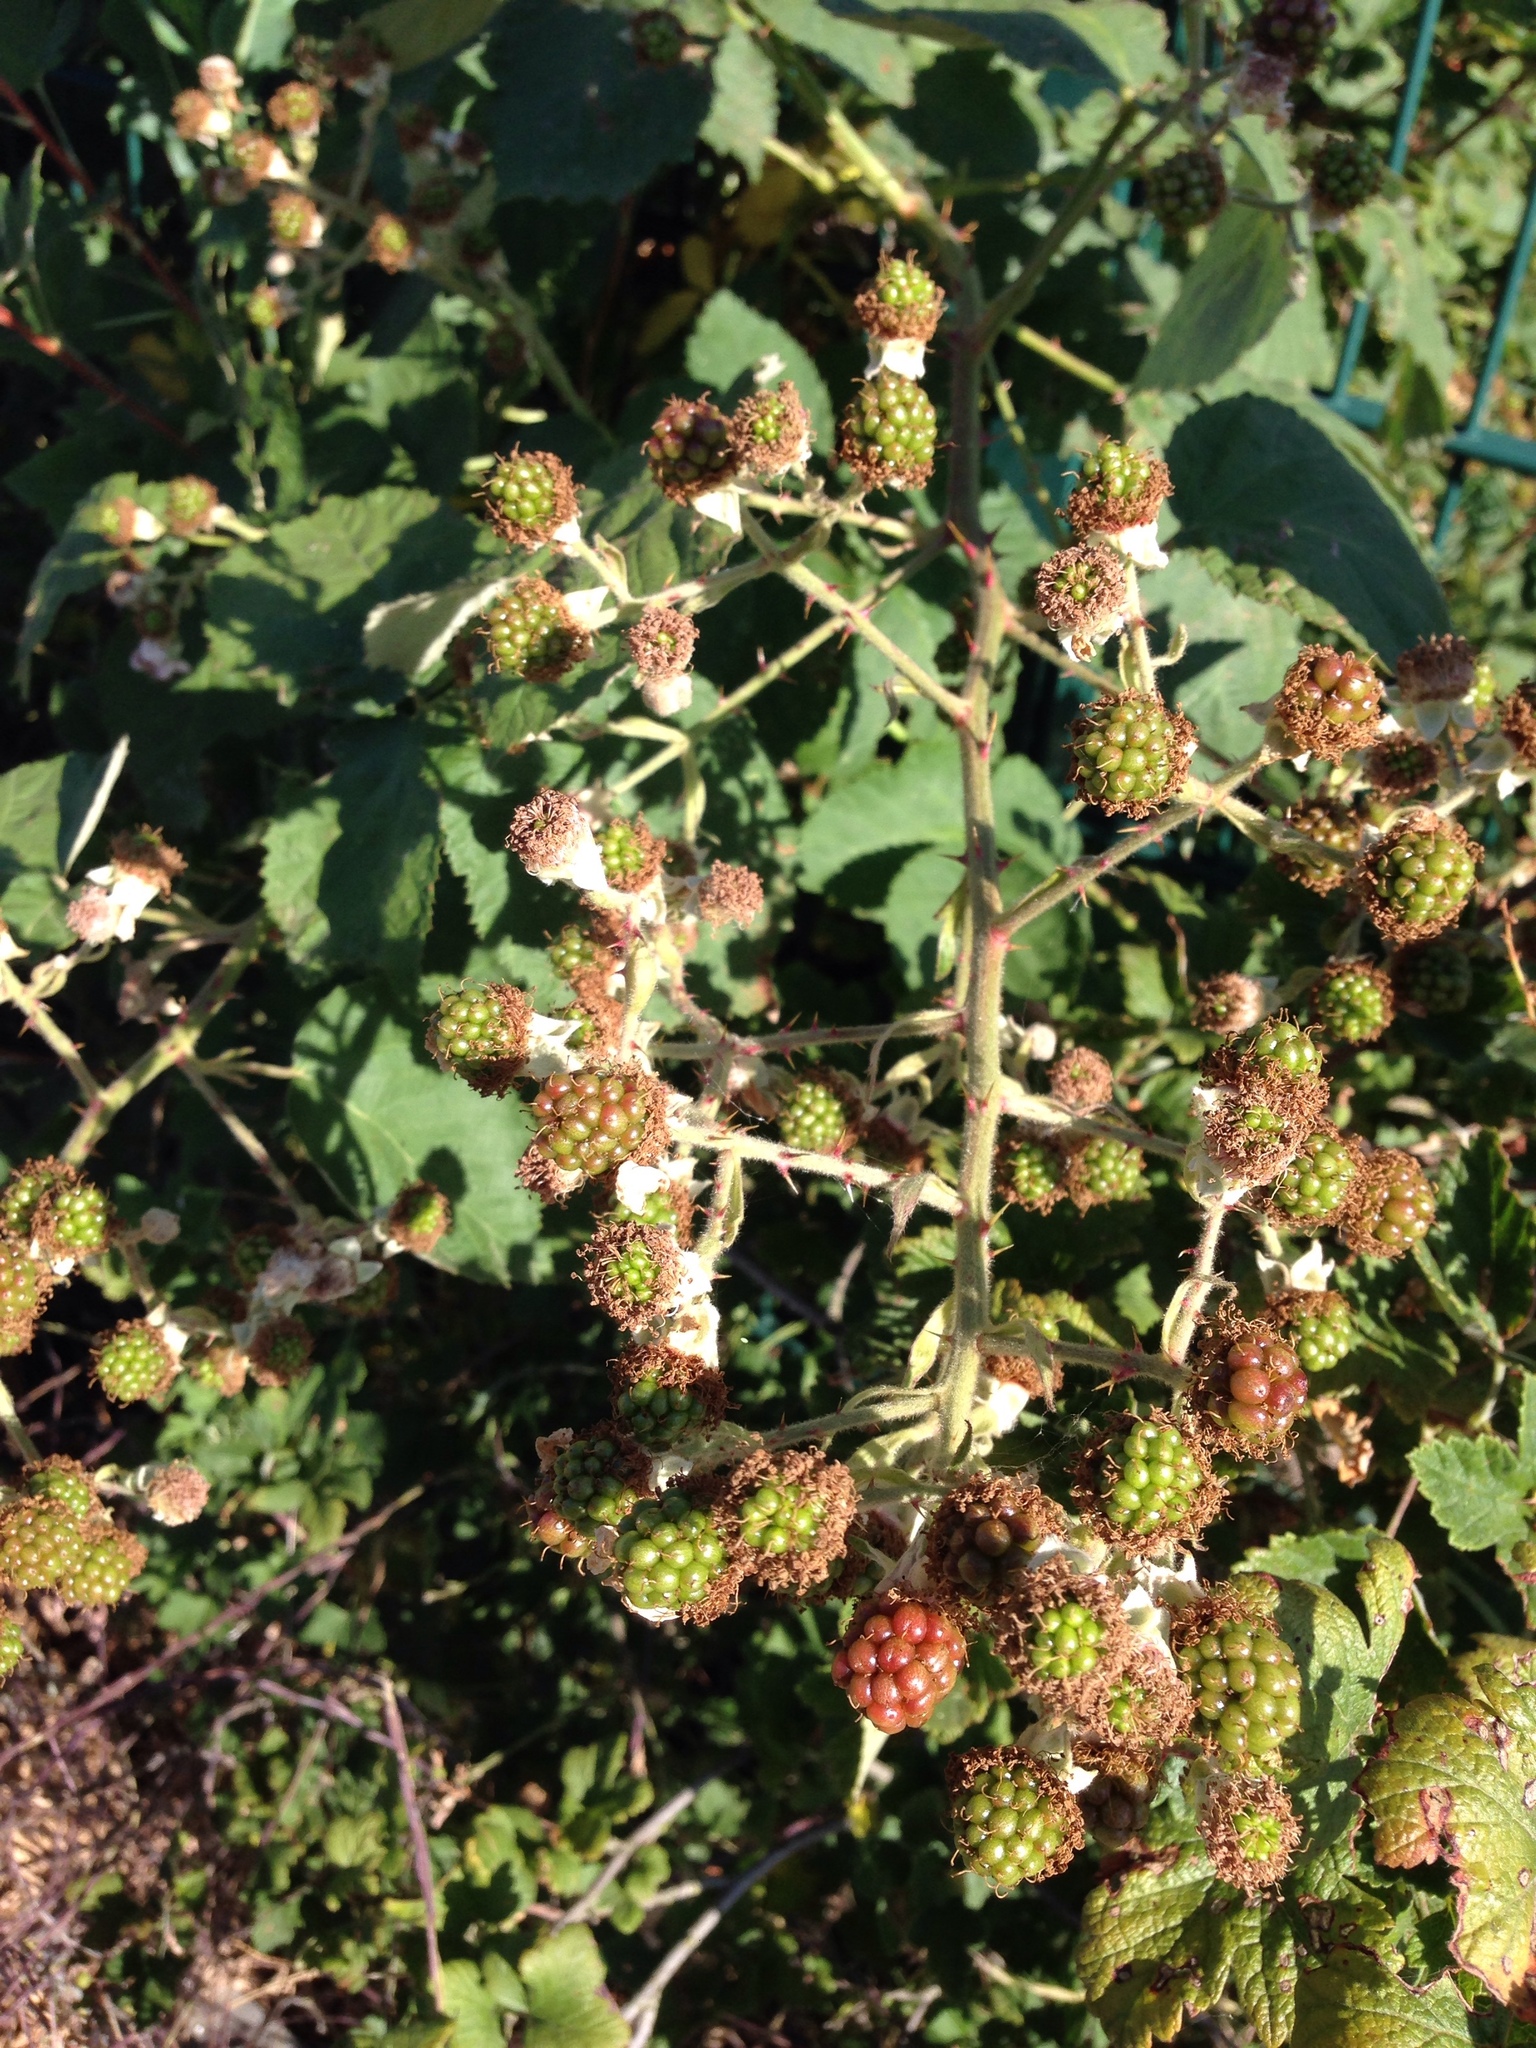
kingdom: Plantae
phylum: Tracheophyta
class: Magnoliopsida
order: Rosales
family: Rosaceae
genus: Rubus
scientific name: Rubus armeniacus
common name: Himalayan blackberry
